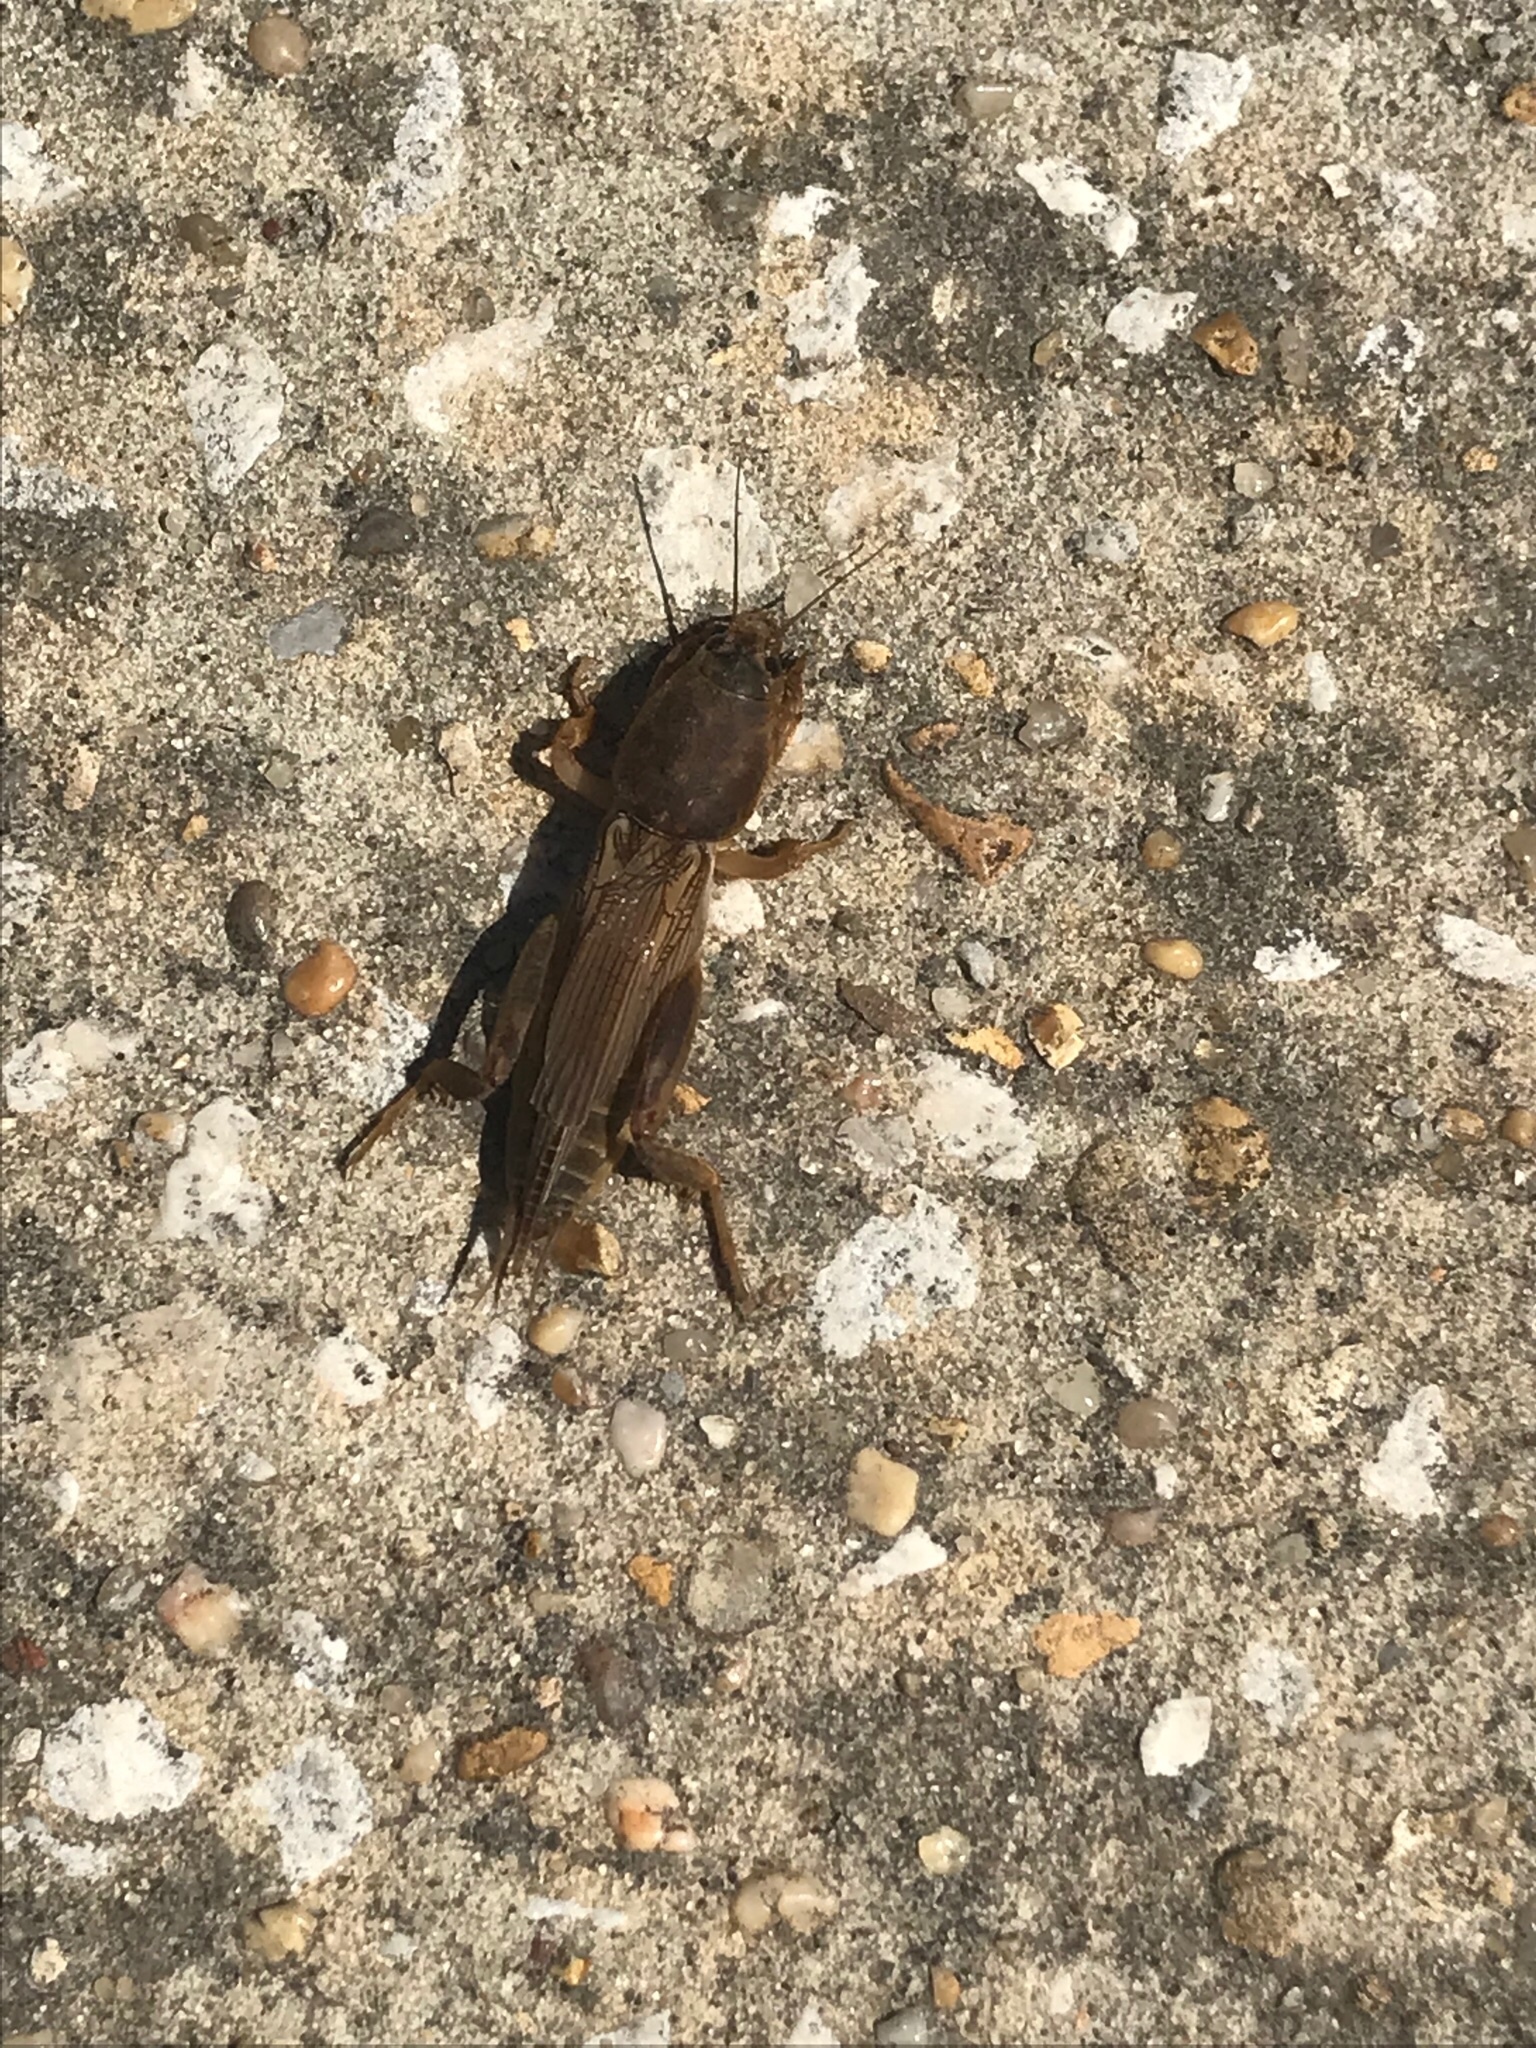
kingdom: Animalia
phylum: Arthropoda
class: Insecta
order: Orthoptera
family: Gryllotalpidae
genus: Neoscapteriscus
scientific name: Neoscapteriscus vicinus
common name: Tawny mole cricket
